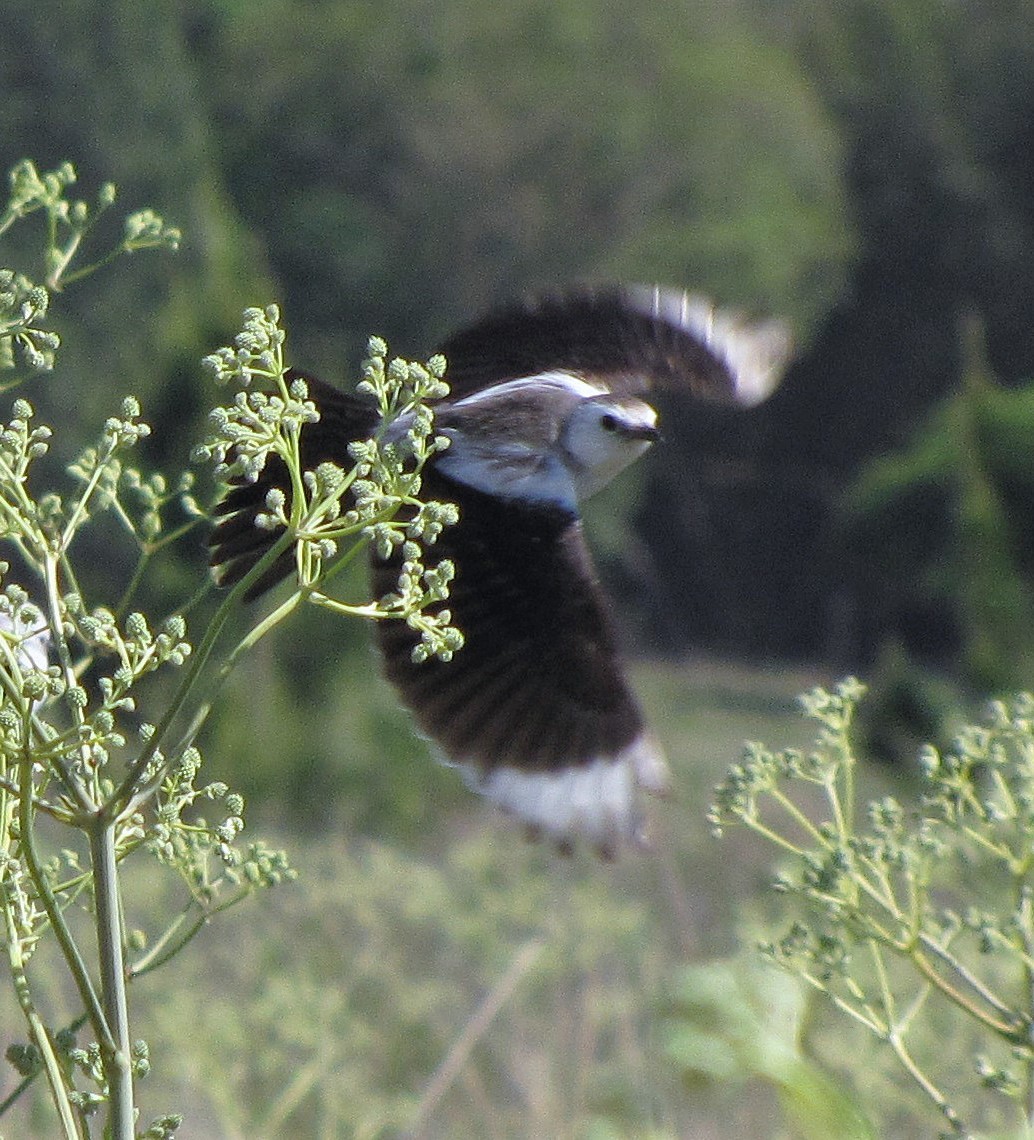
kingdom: Animalia
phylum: Chordata
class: Aves
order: Passeriformes
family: Tyrannidae
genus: Heteroxolmis
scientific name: Heteroxolmis dominicana
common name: Black-and-white monjita
